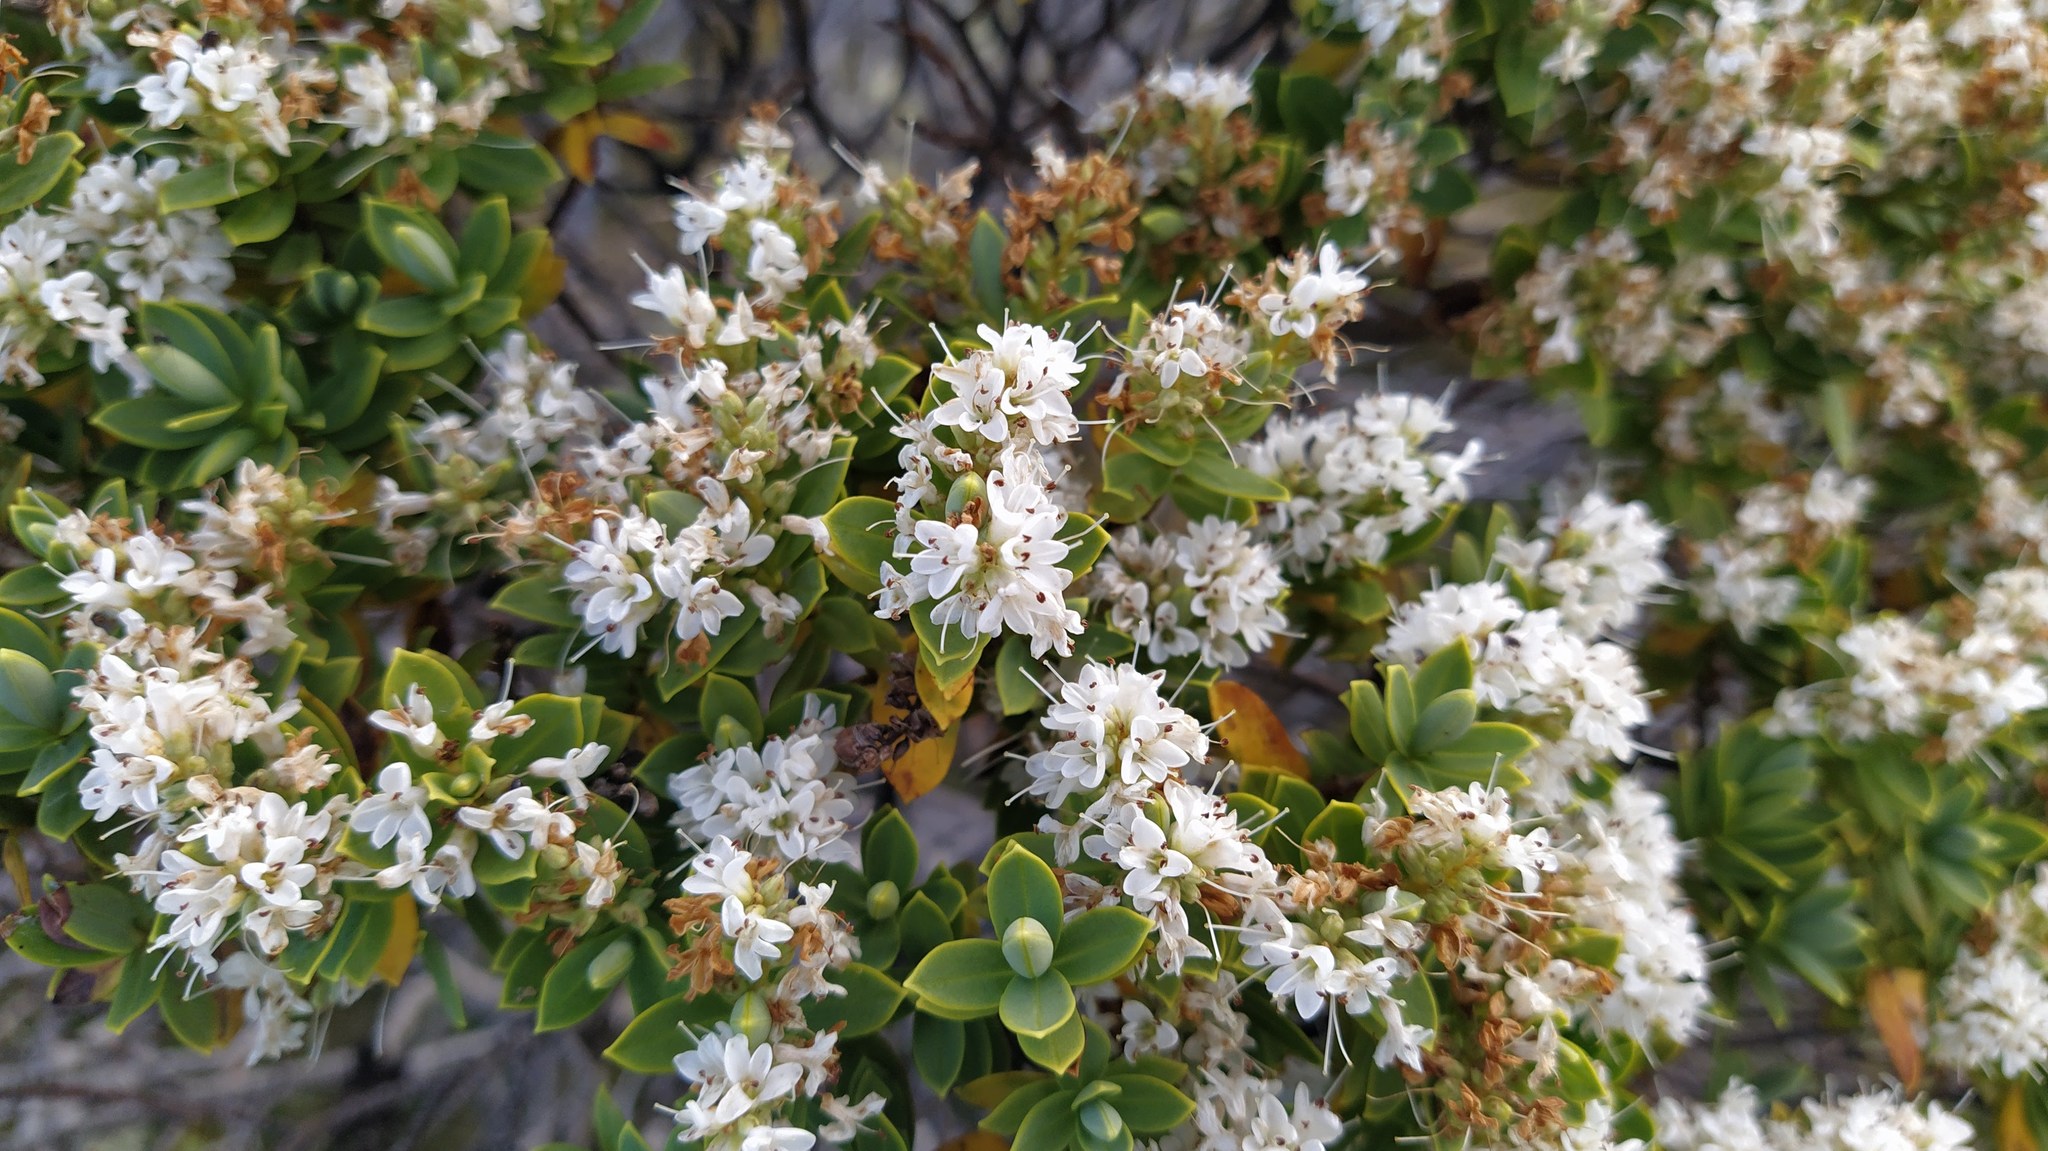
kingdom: Plantae
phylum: Tracheophyta
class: Magnoliopsida
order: Lamiales
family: Plantaginaceae
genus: Veronica
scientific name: Veronica topiaria
